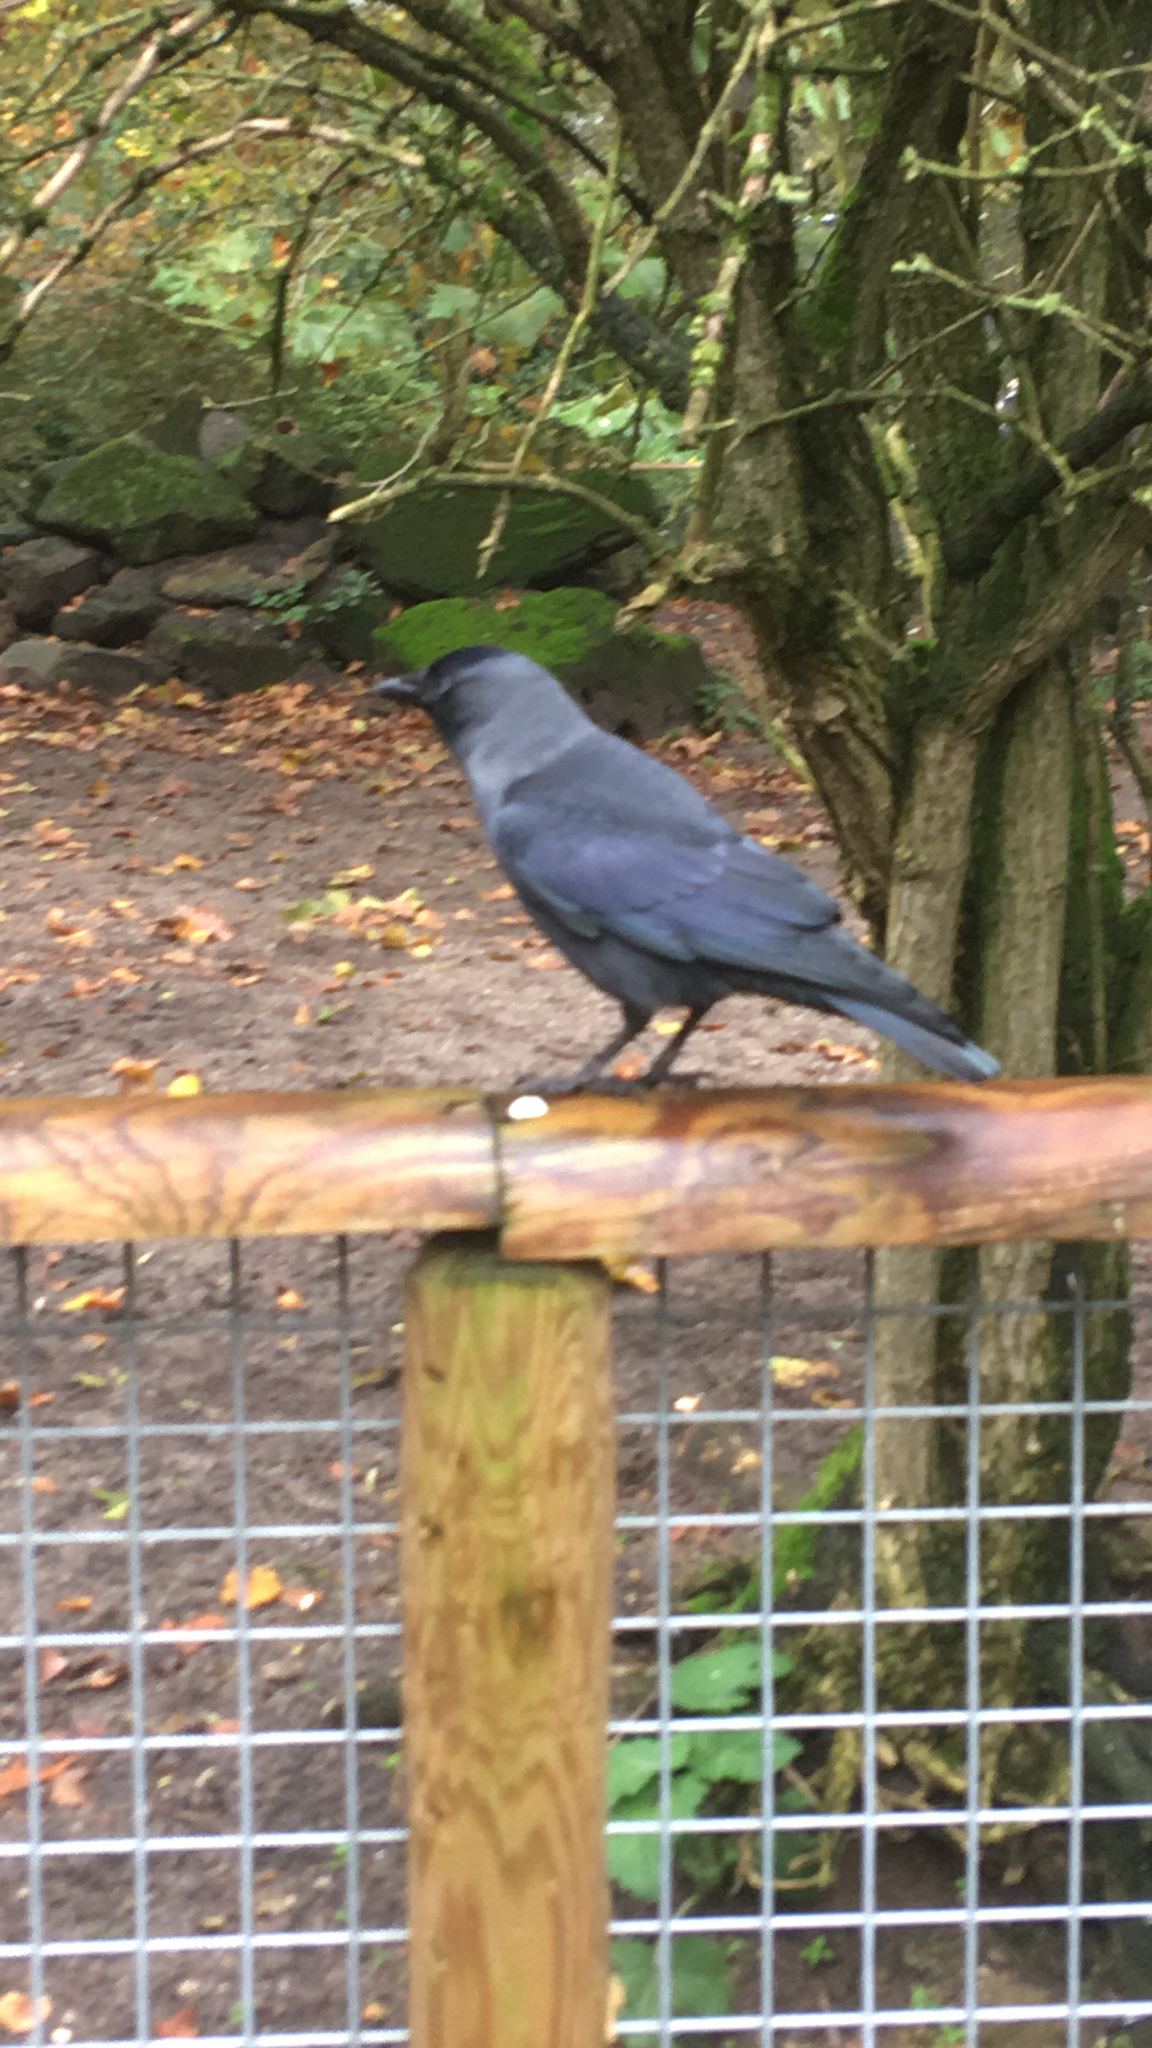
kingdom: Animalia
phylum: Chordata
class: Aves
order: Passeriformes
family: Corvidae
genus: Coloeus
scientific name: Coloeus monedula
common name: Western jackdaw
